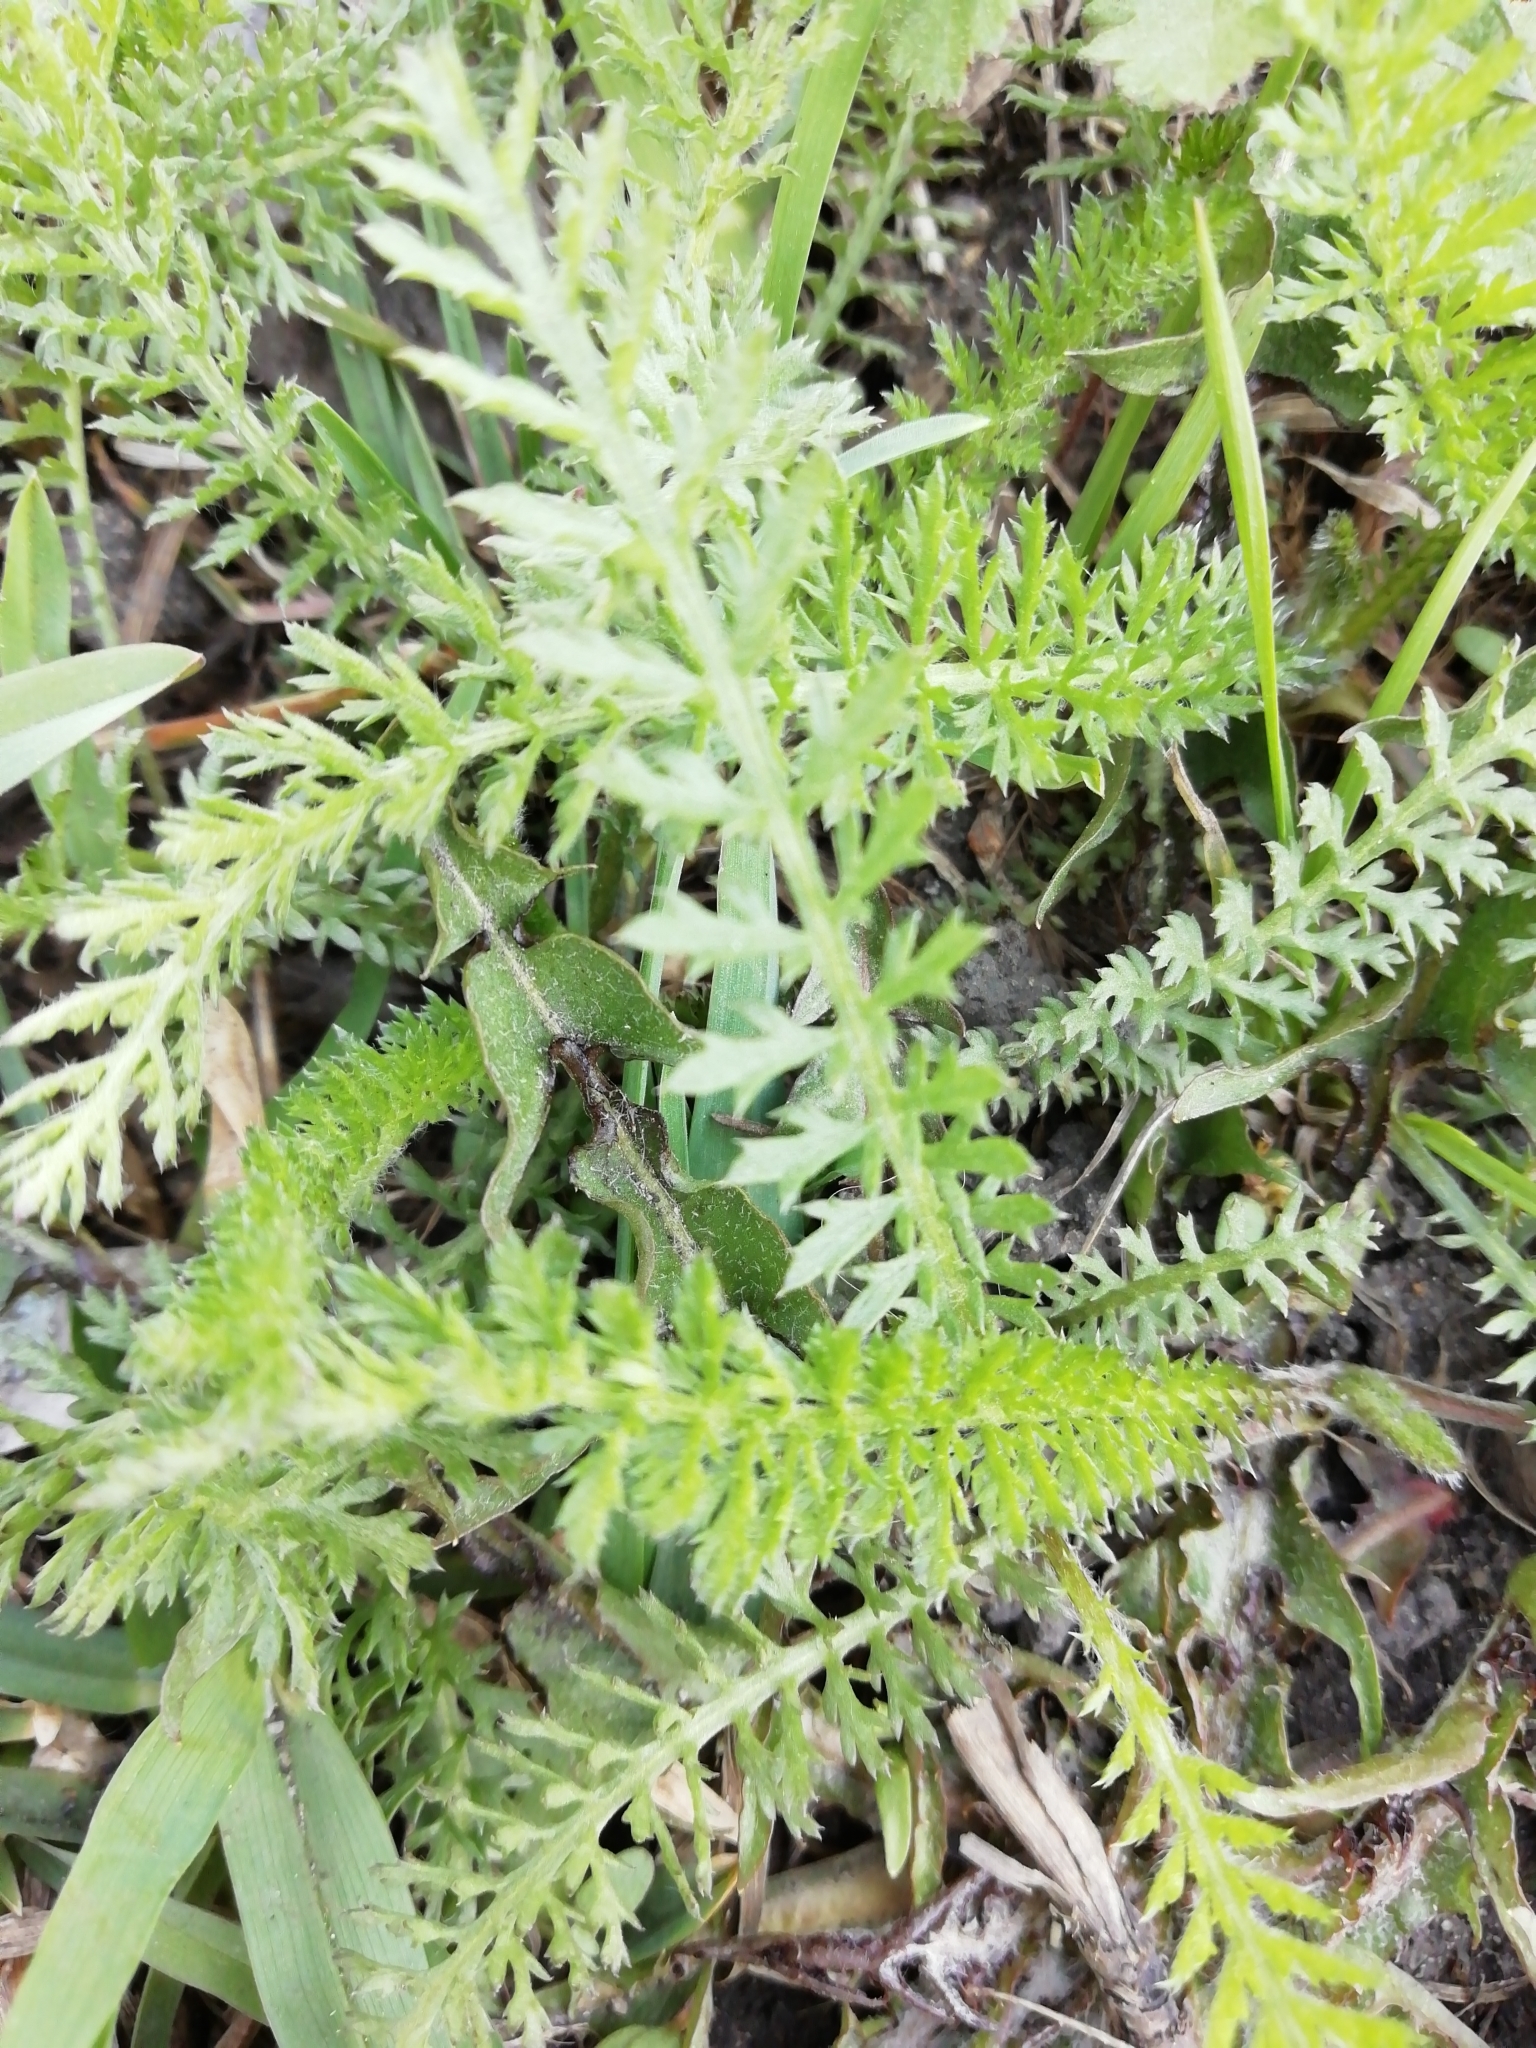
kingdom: Plantae
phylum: Tracheophyta
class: Magnoliopsida
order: Asterales
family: Asteraceae
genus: Achillea
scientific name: Achillea millefolium
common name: Yarrow
